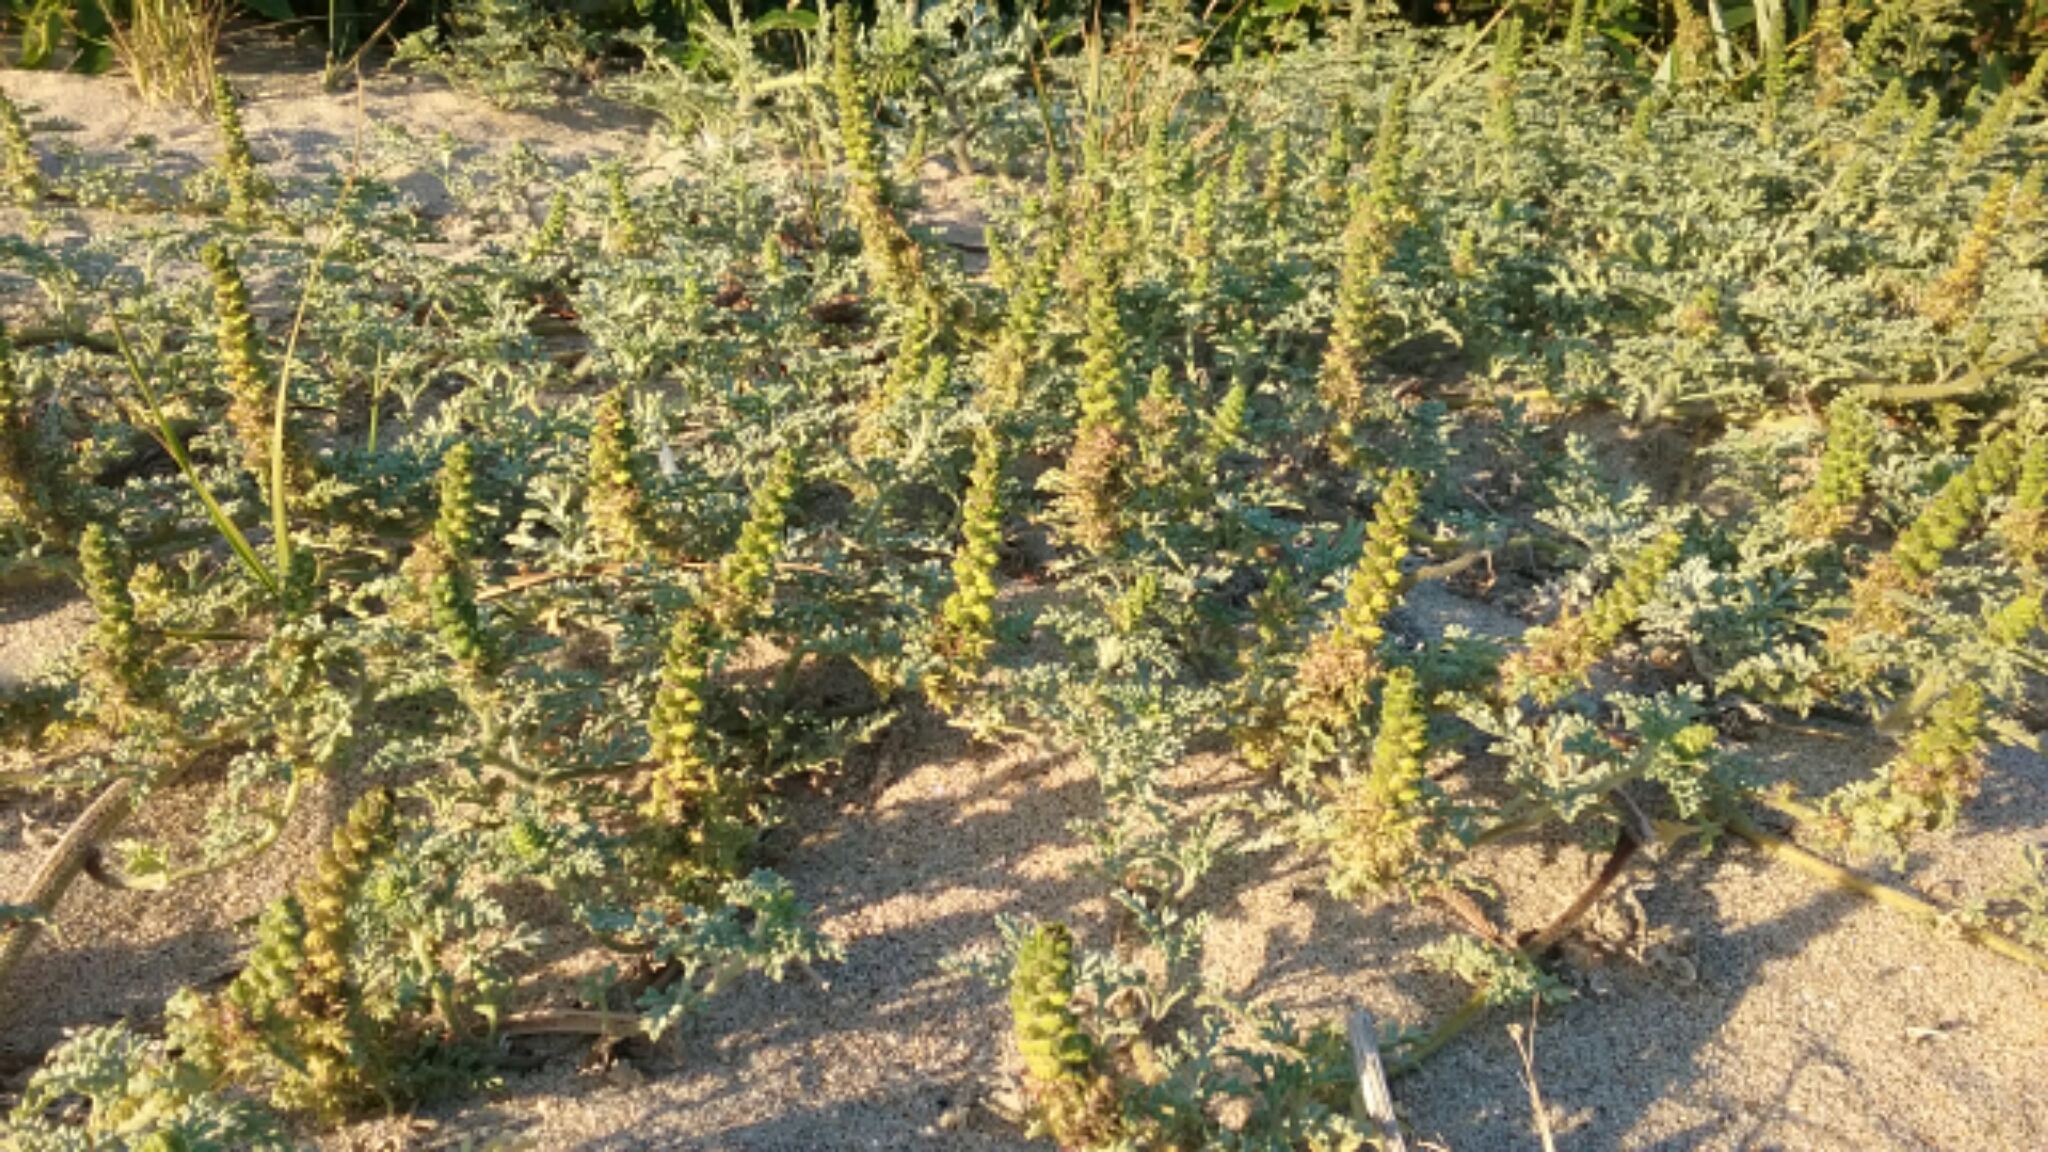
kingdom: Plantae
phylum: Tracheophyta
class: Magnoliopsida
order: Asterales
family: Asteraceae
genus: Ambrosia
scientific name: Ambrosia chamissonis
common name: Beachbur
